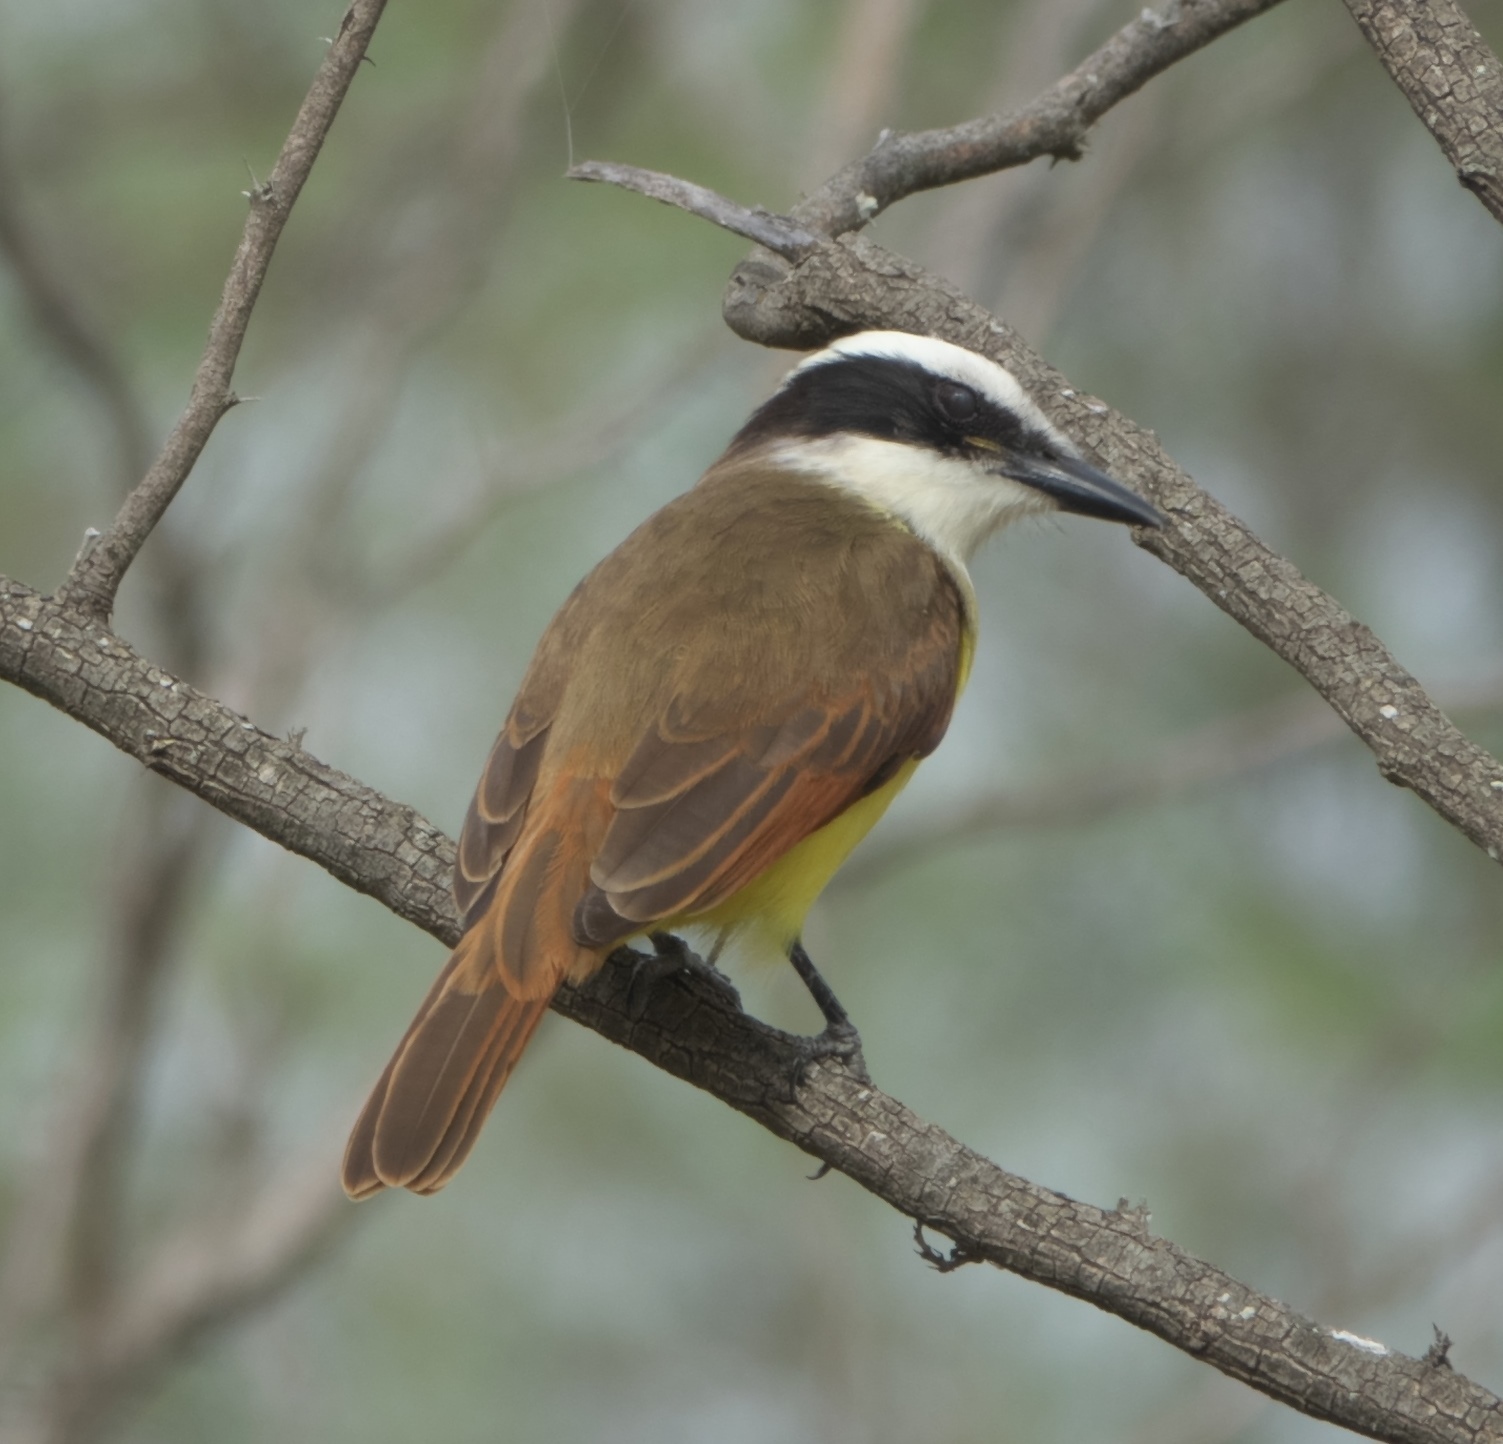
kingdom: Animalia
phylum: Chordata
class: Aves
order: Passeriformes
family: Tyrannidae
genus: Pitangus
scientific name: Pitangus sulphuratus
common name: Great kiskadee
